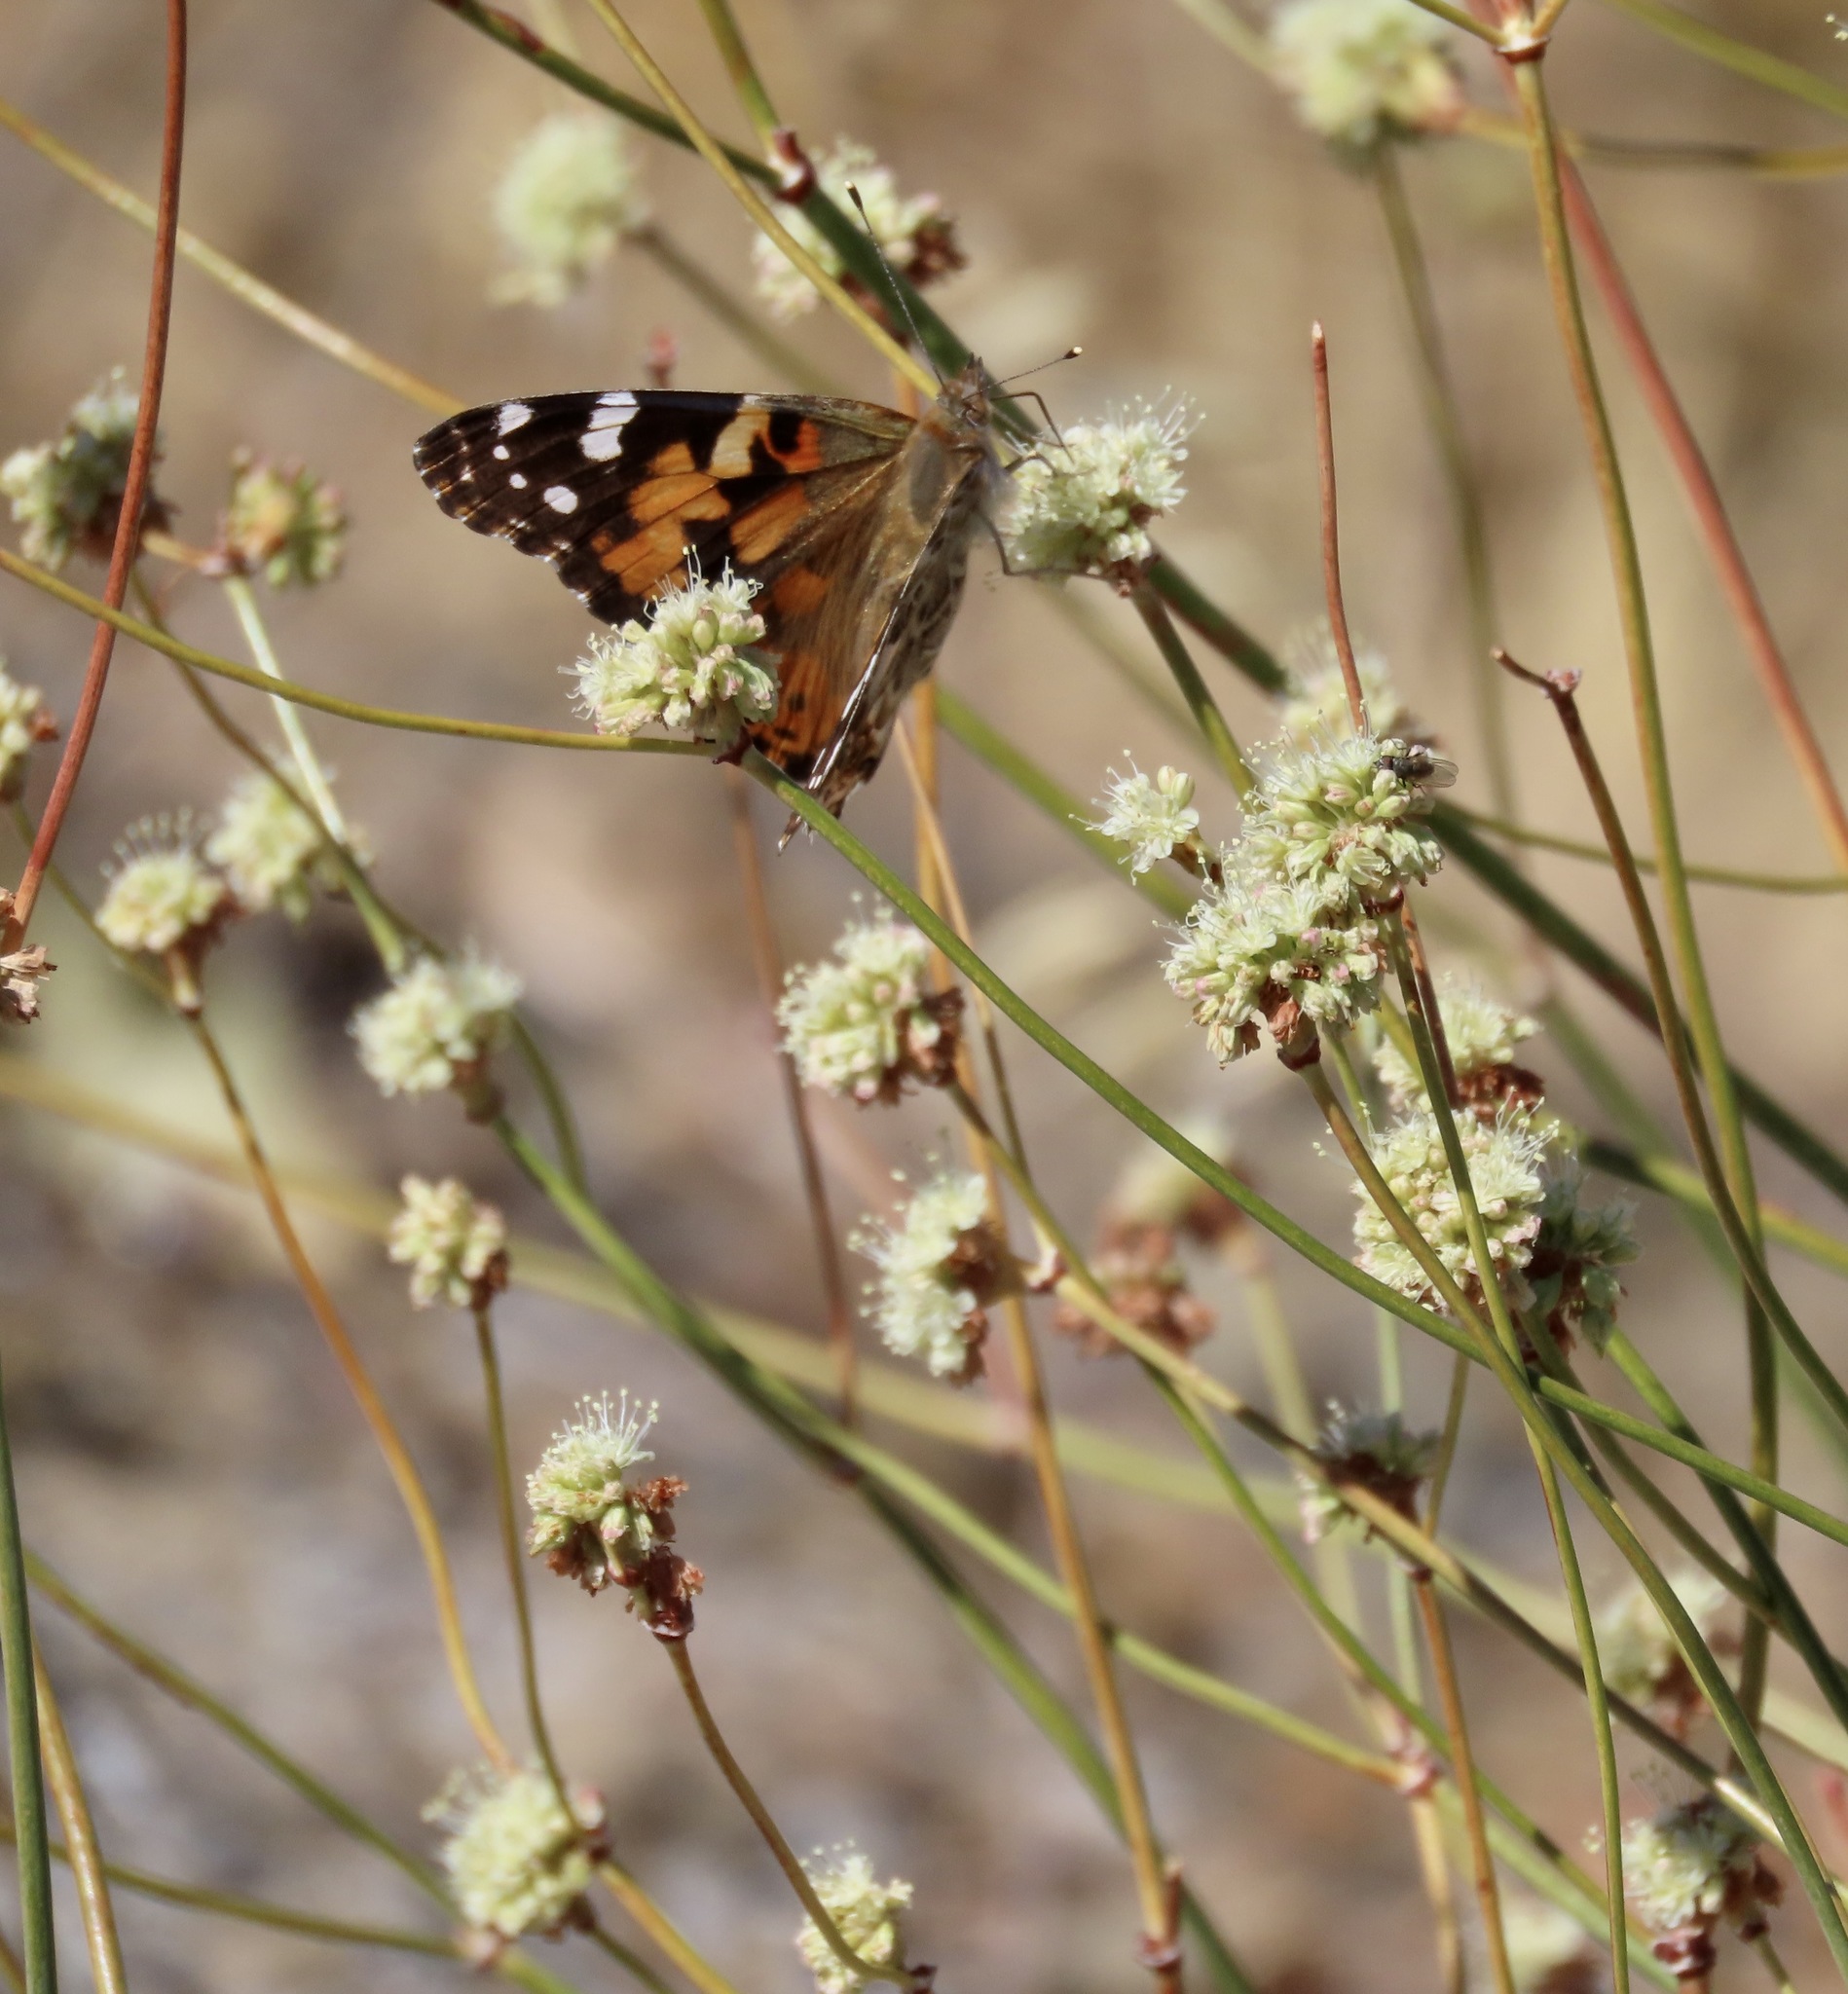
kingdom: Animalia
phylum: Arthropoda
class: Insecta
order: Lepidoptera
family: Nymphalidae
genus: Vanessa
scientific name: Vanessa cardui
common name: Painted lady
